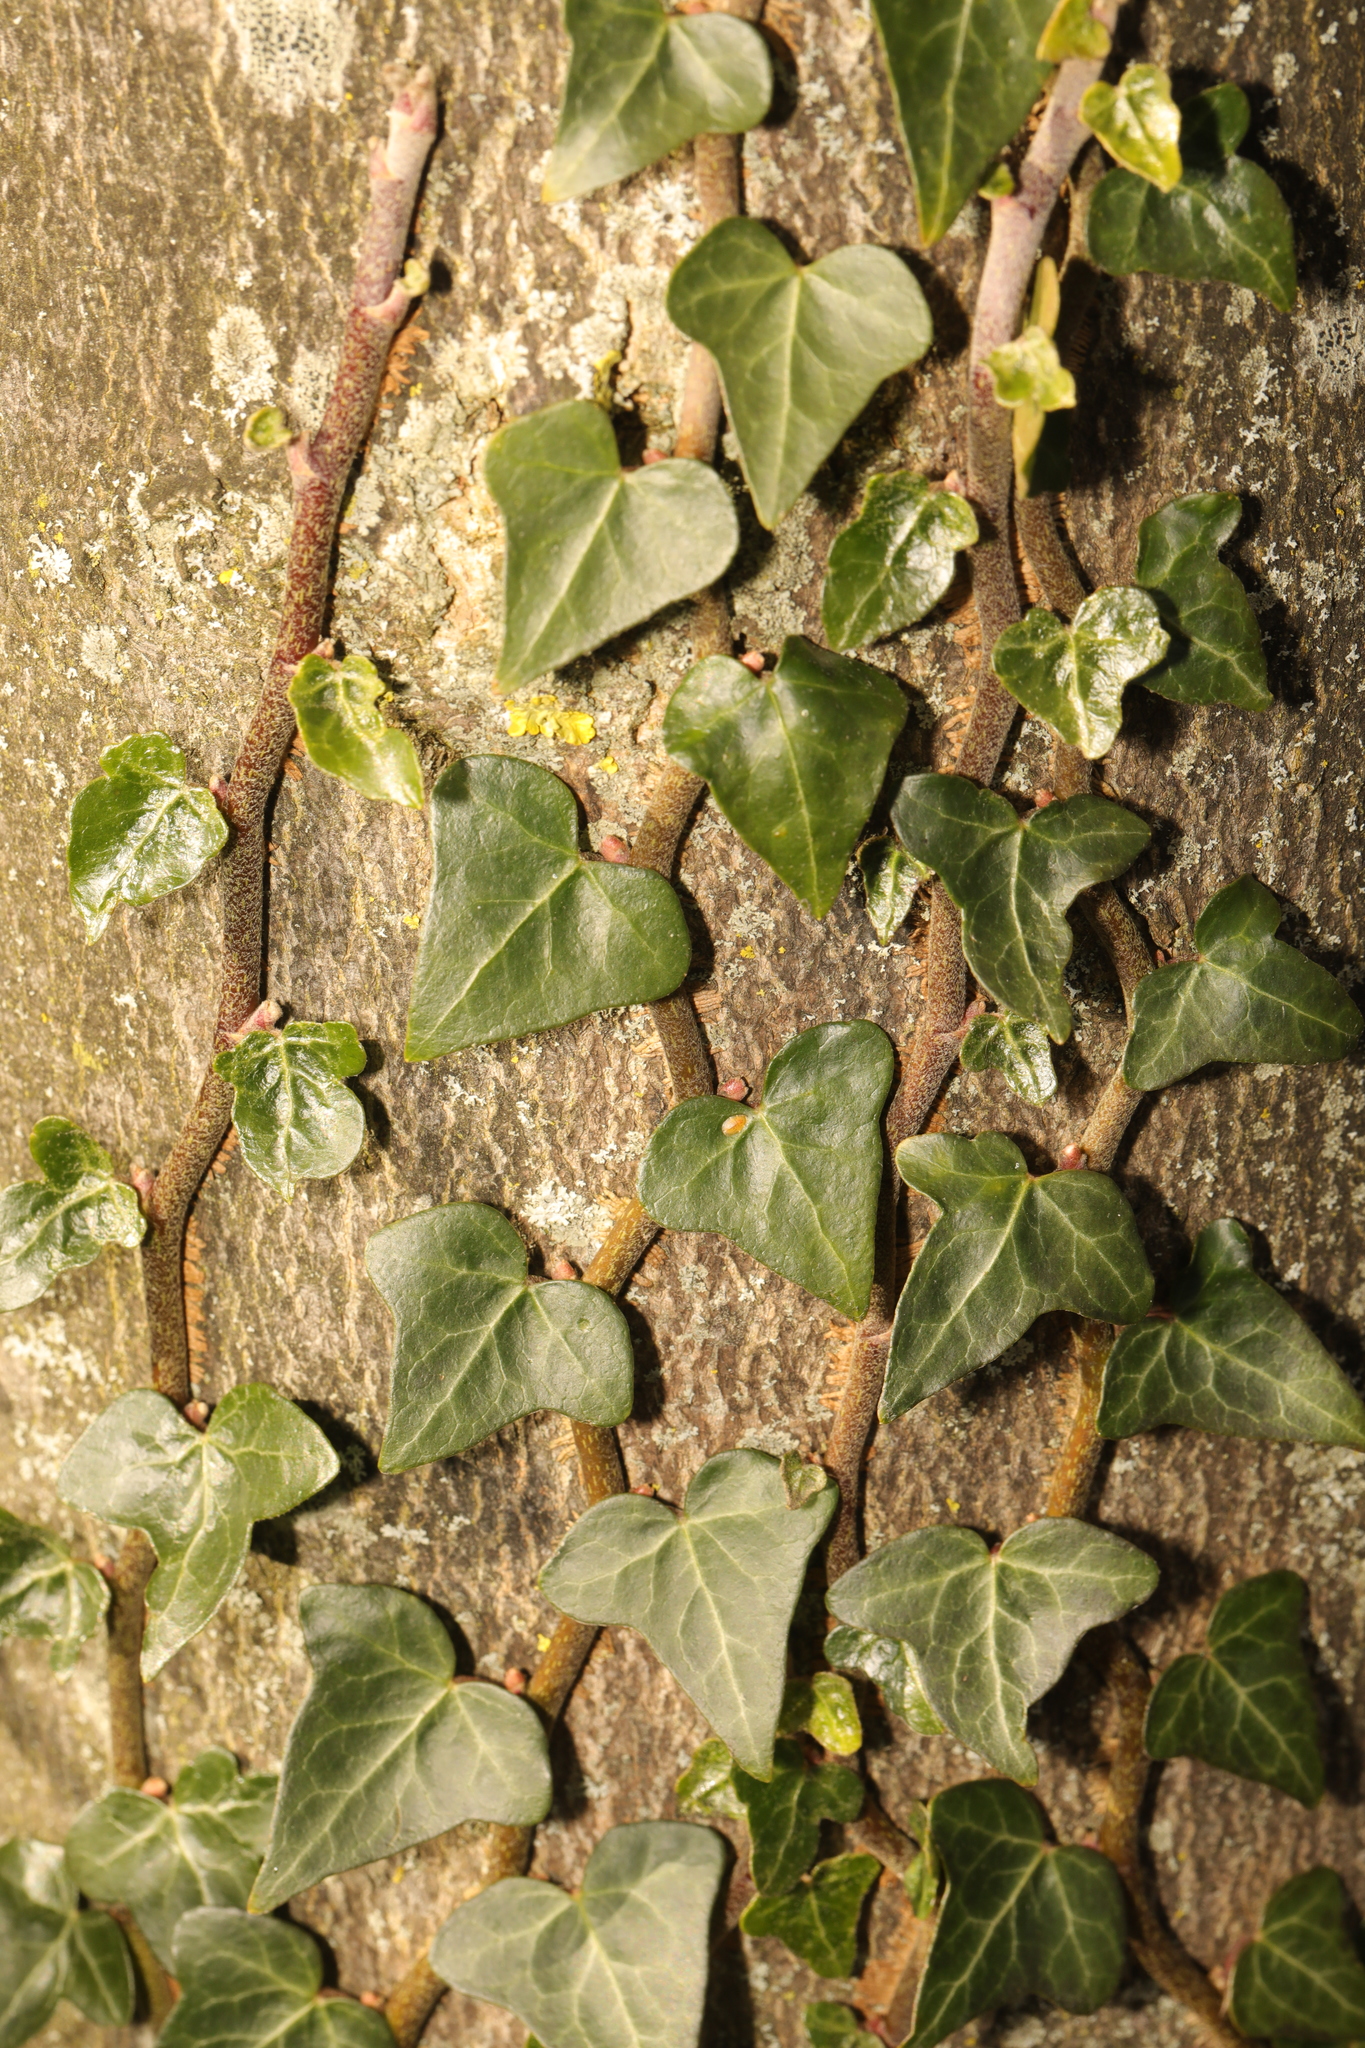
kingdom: Plantae
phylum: Tracheophyta
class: Magnoliopsida
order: Apiales
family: Araliaceae
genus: Hedera
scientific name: Hedera helix
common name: Ivy
